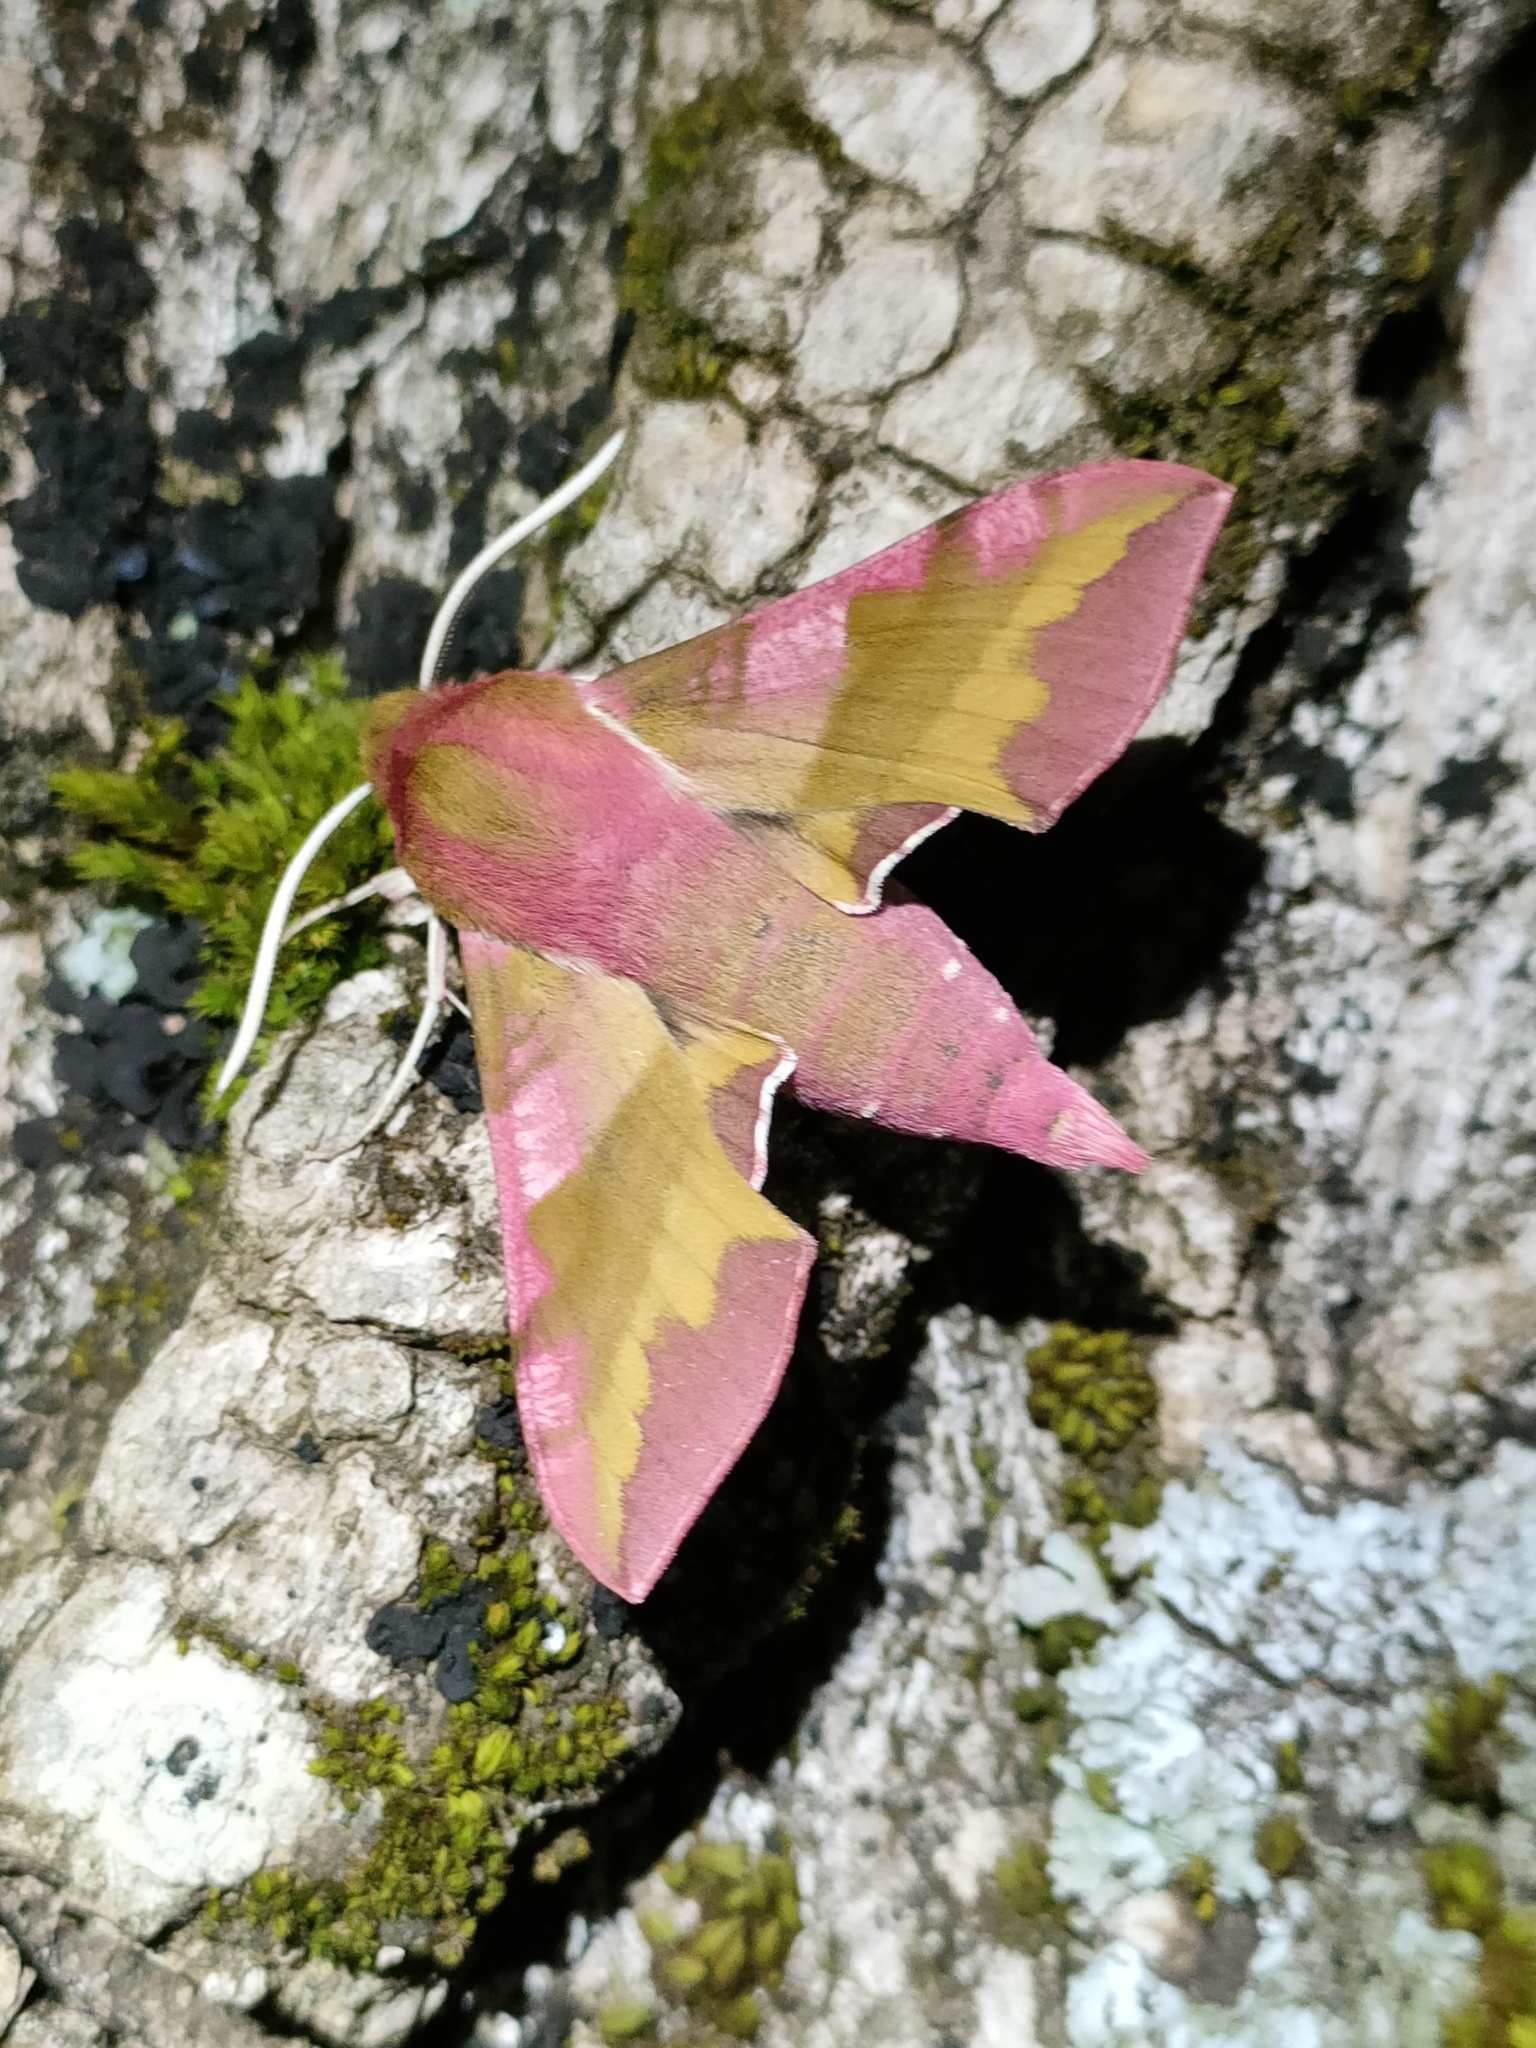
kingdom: Animalia
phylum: Arthropoda
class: Insecta
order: Lepidoptera
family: Sphingidae
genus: Deilephila
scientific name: Deilephila porcellus
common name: Small elephant hawk-moth
